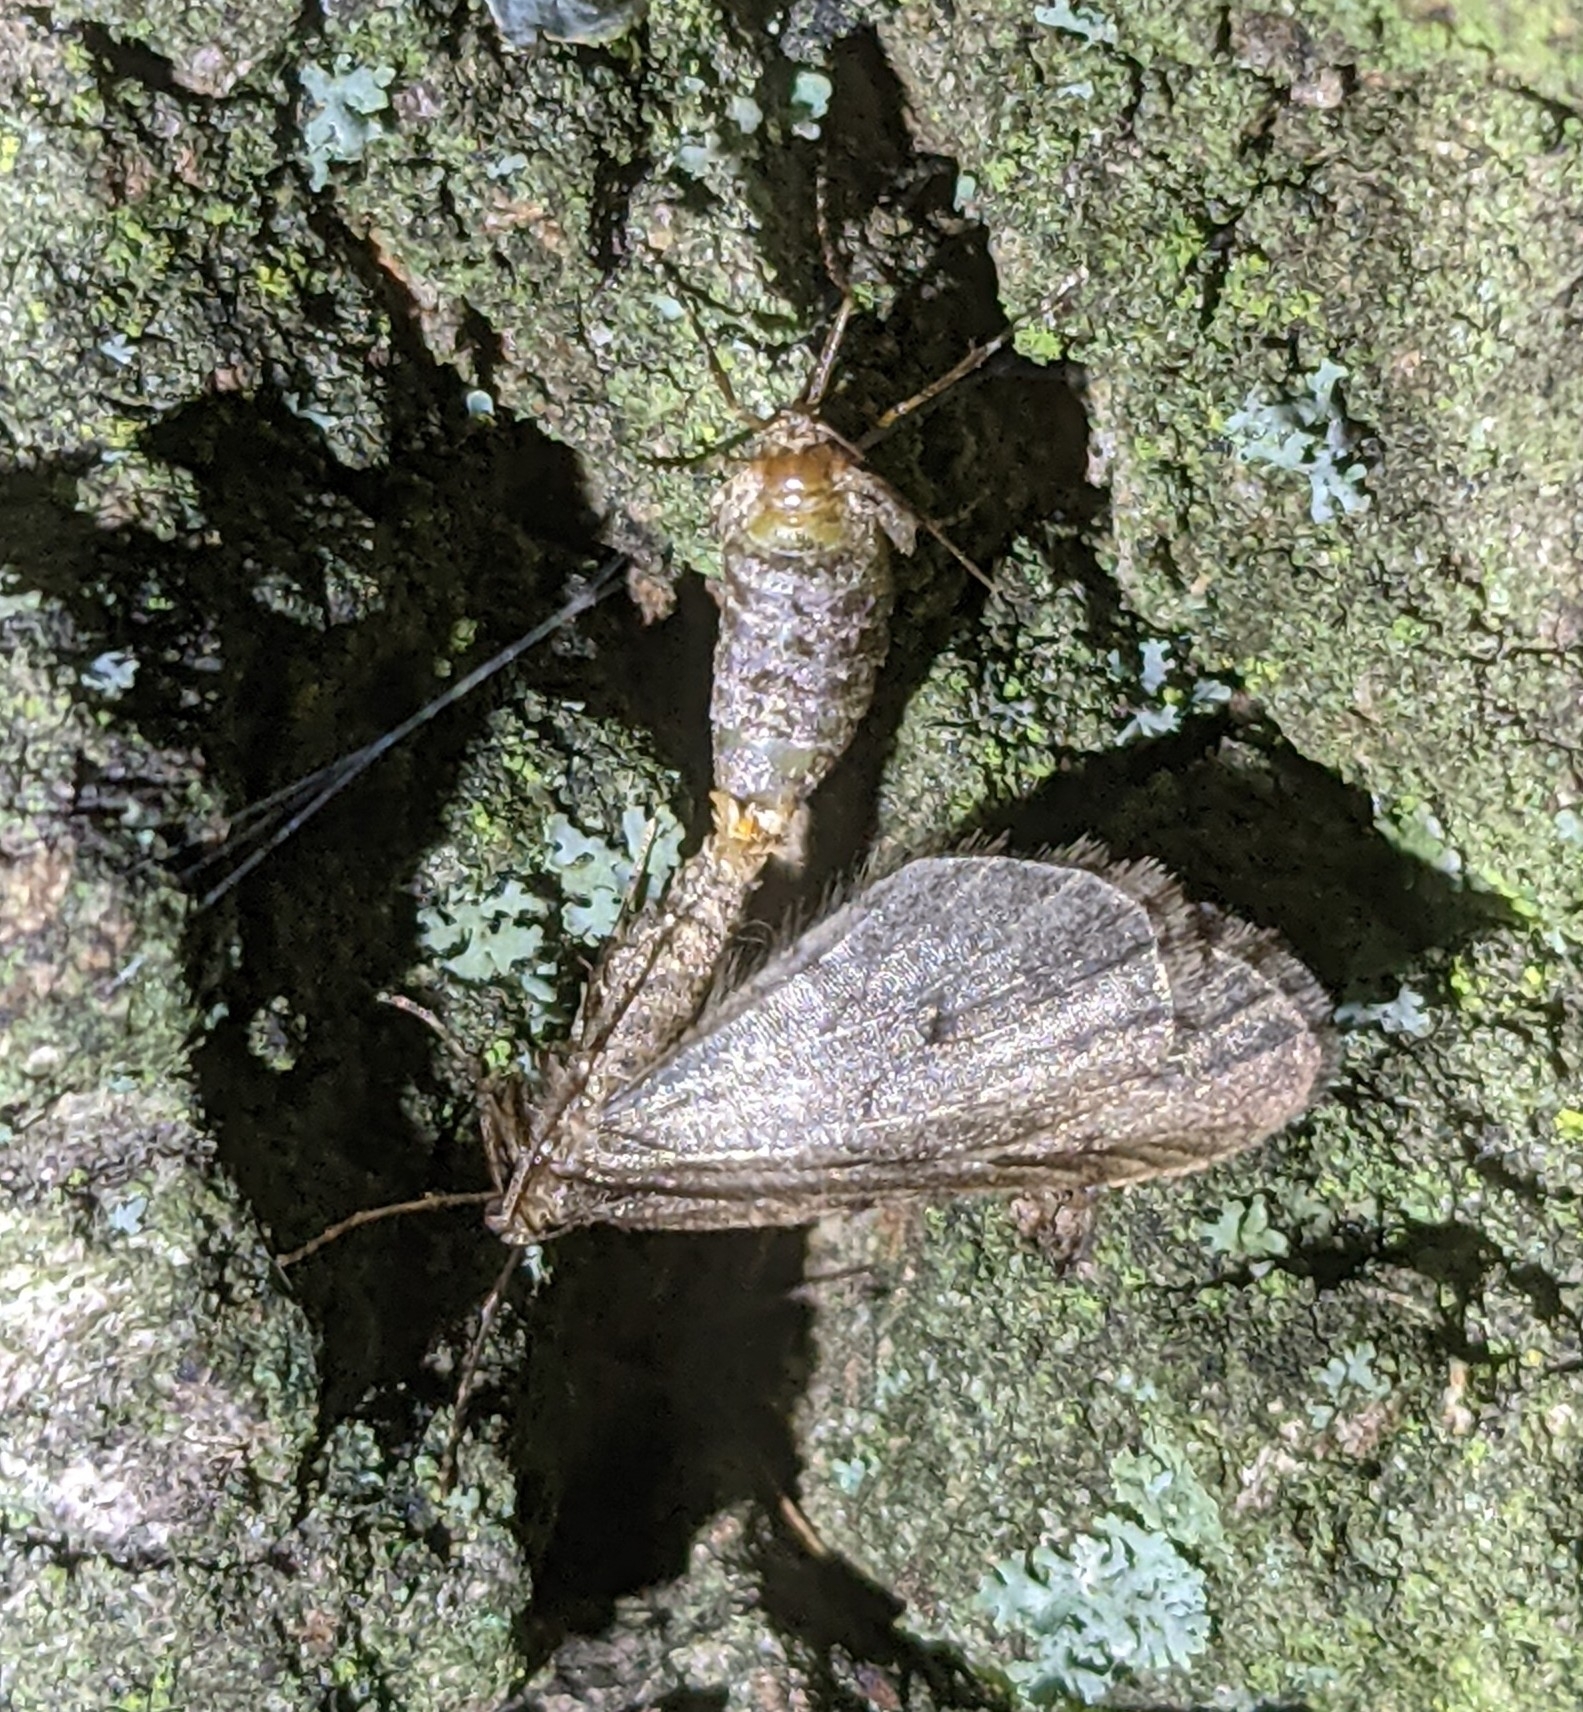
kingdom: Animalia
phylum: Arthropoda
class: Insecta
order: Lepidoptera
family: Geometridae
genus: Operophtera
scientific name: Operophtera brumata
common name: Winter moth
